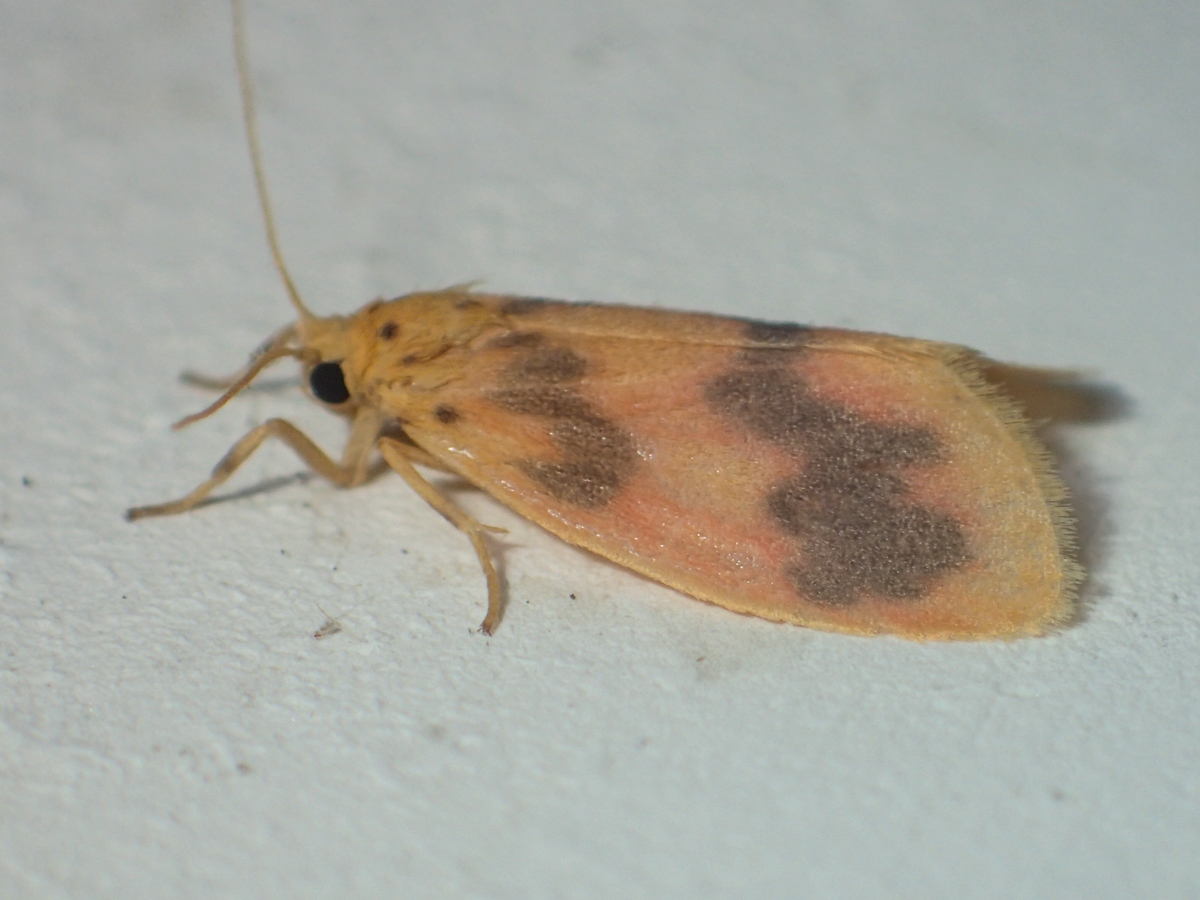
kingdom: Animalia
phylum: Arthropoda
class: Insecta
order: Lepidoptera
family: Erebidae
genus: Miltochrista
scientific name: Miltochrista
